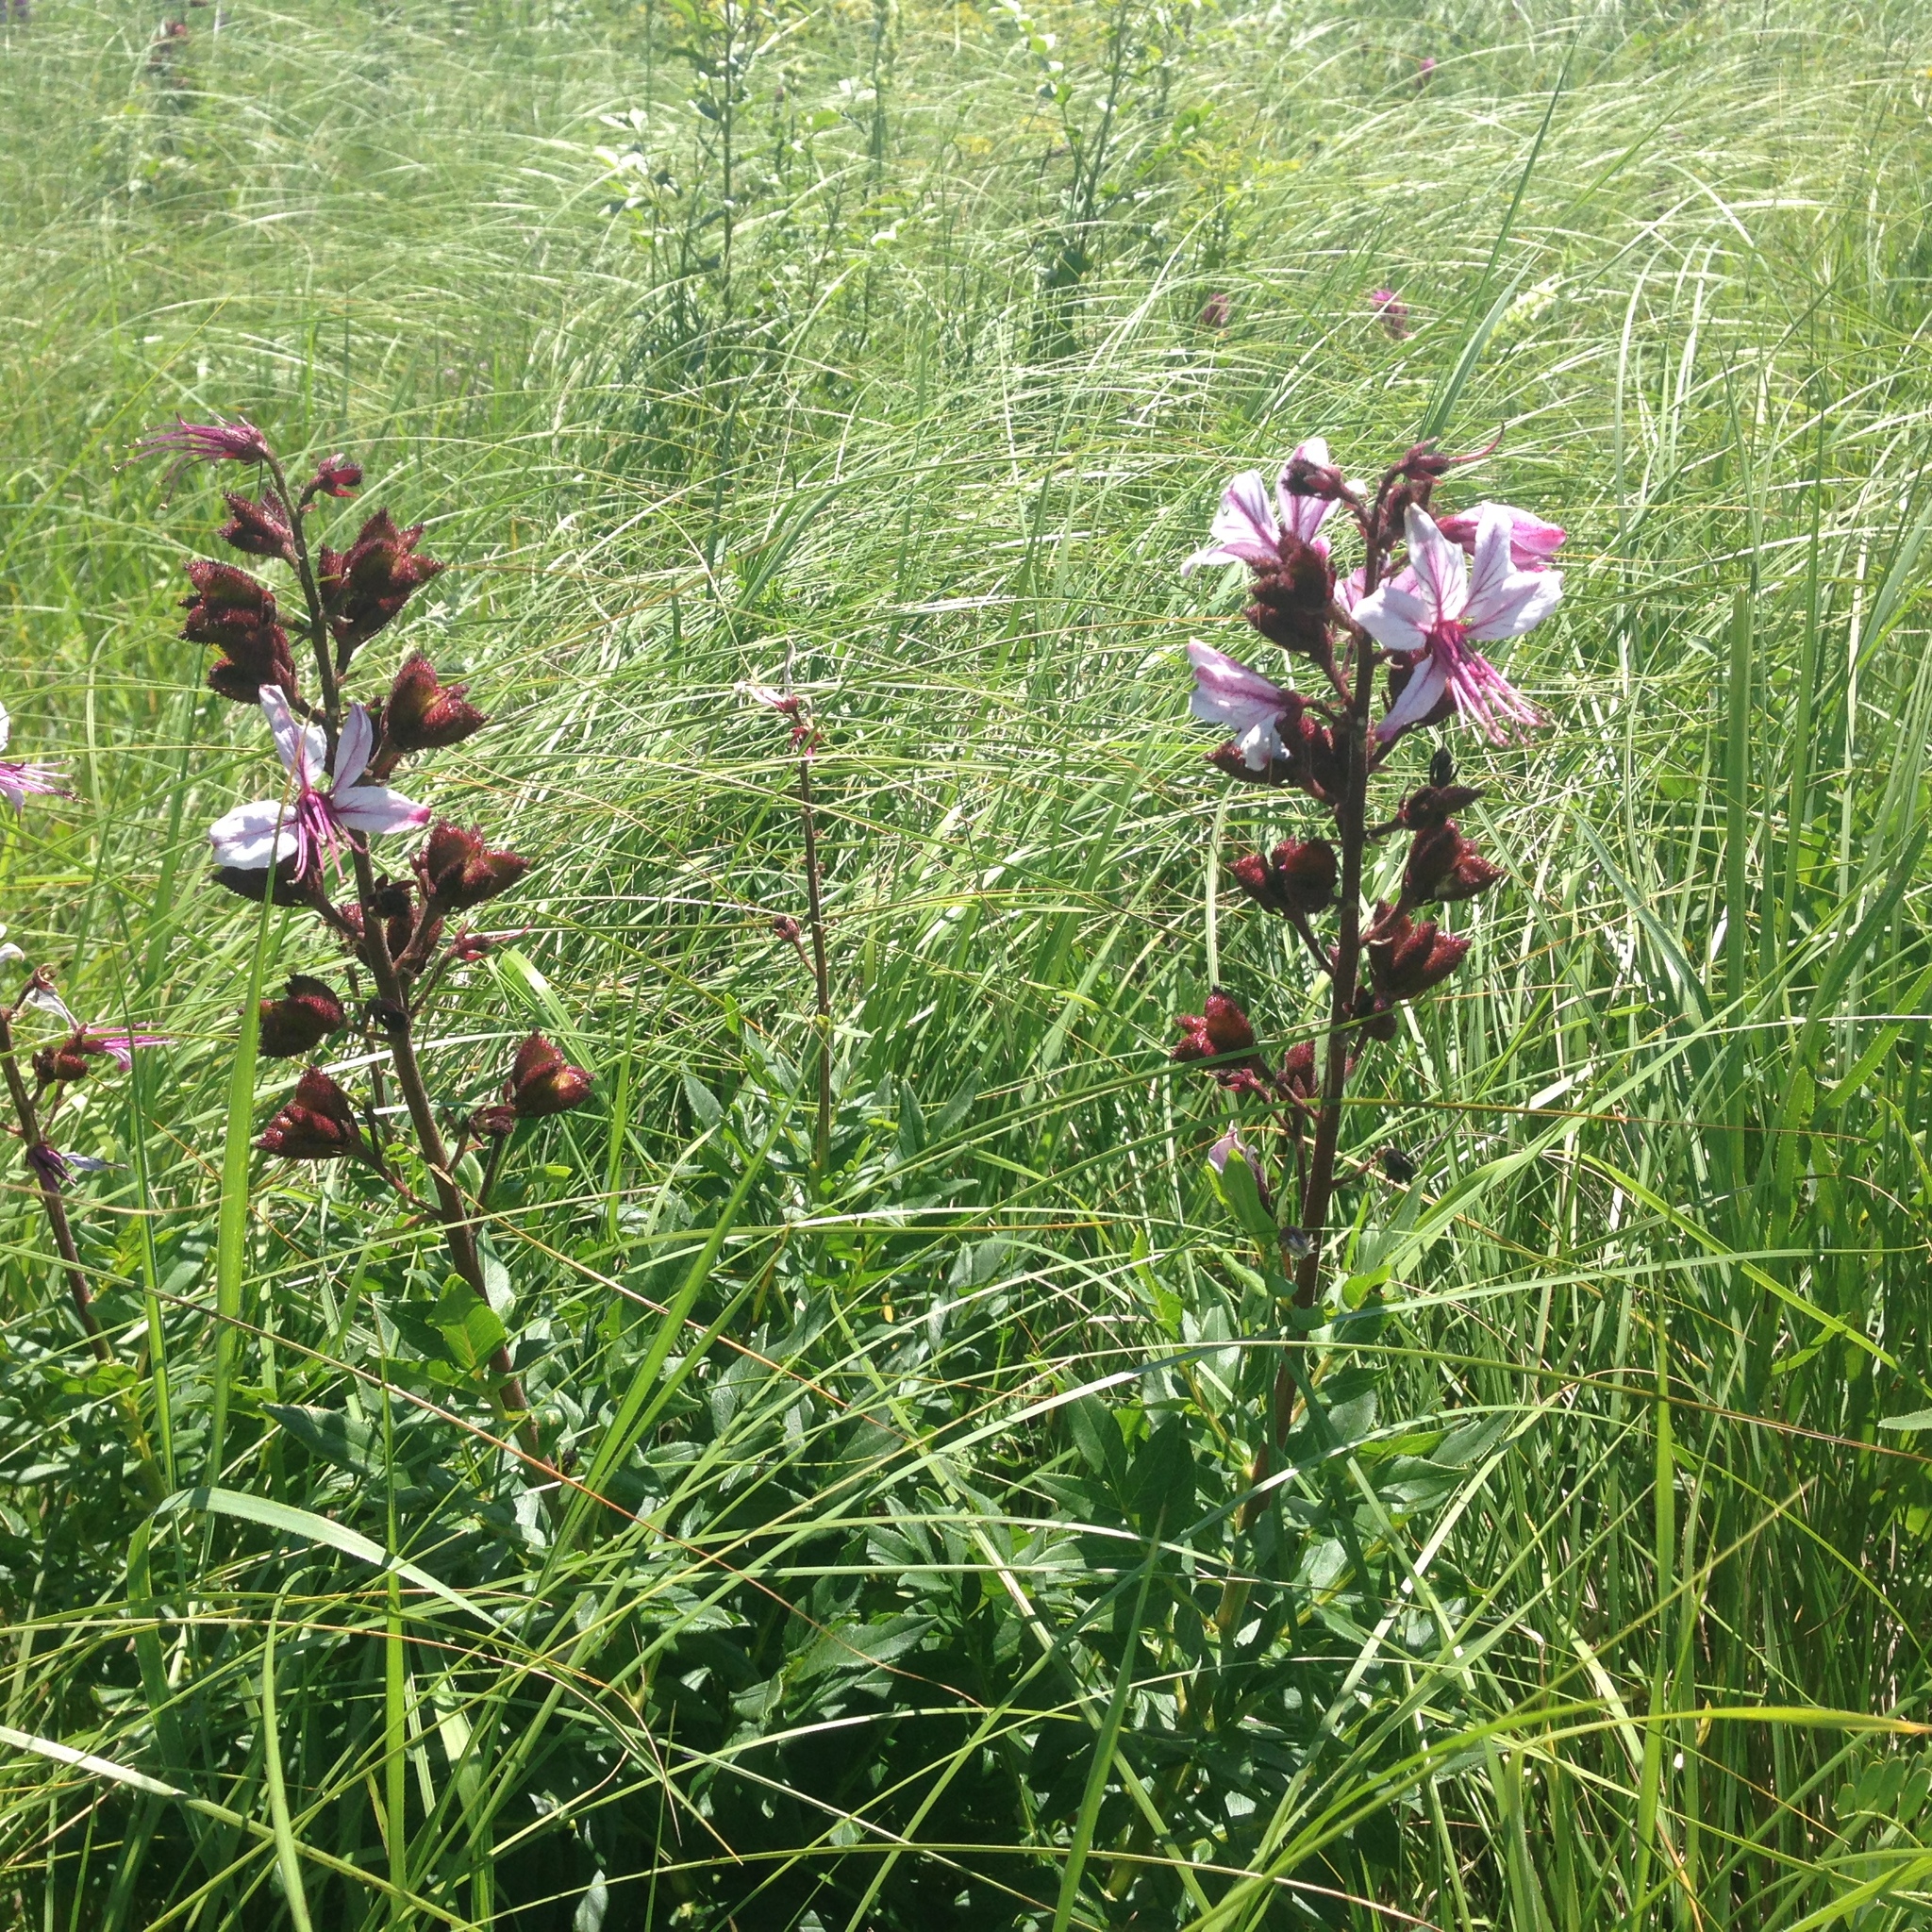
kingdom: Plantae
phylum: Tracheophyta
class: Magnoliopsida
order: Sapindales
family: Rutaceae
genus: Dictamnus
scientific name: Dictamnus albus
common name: Gasplant
